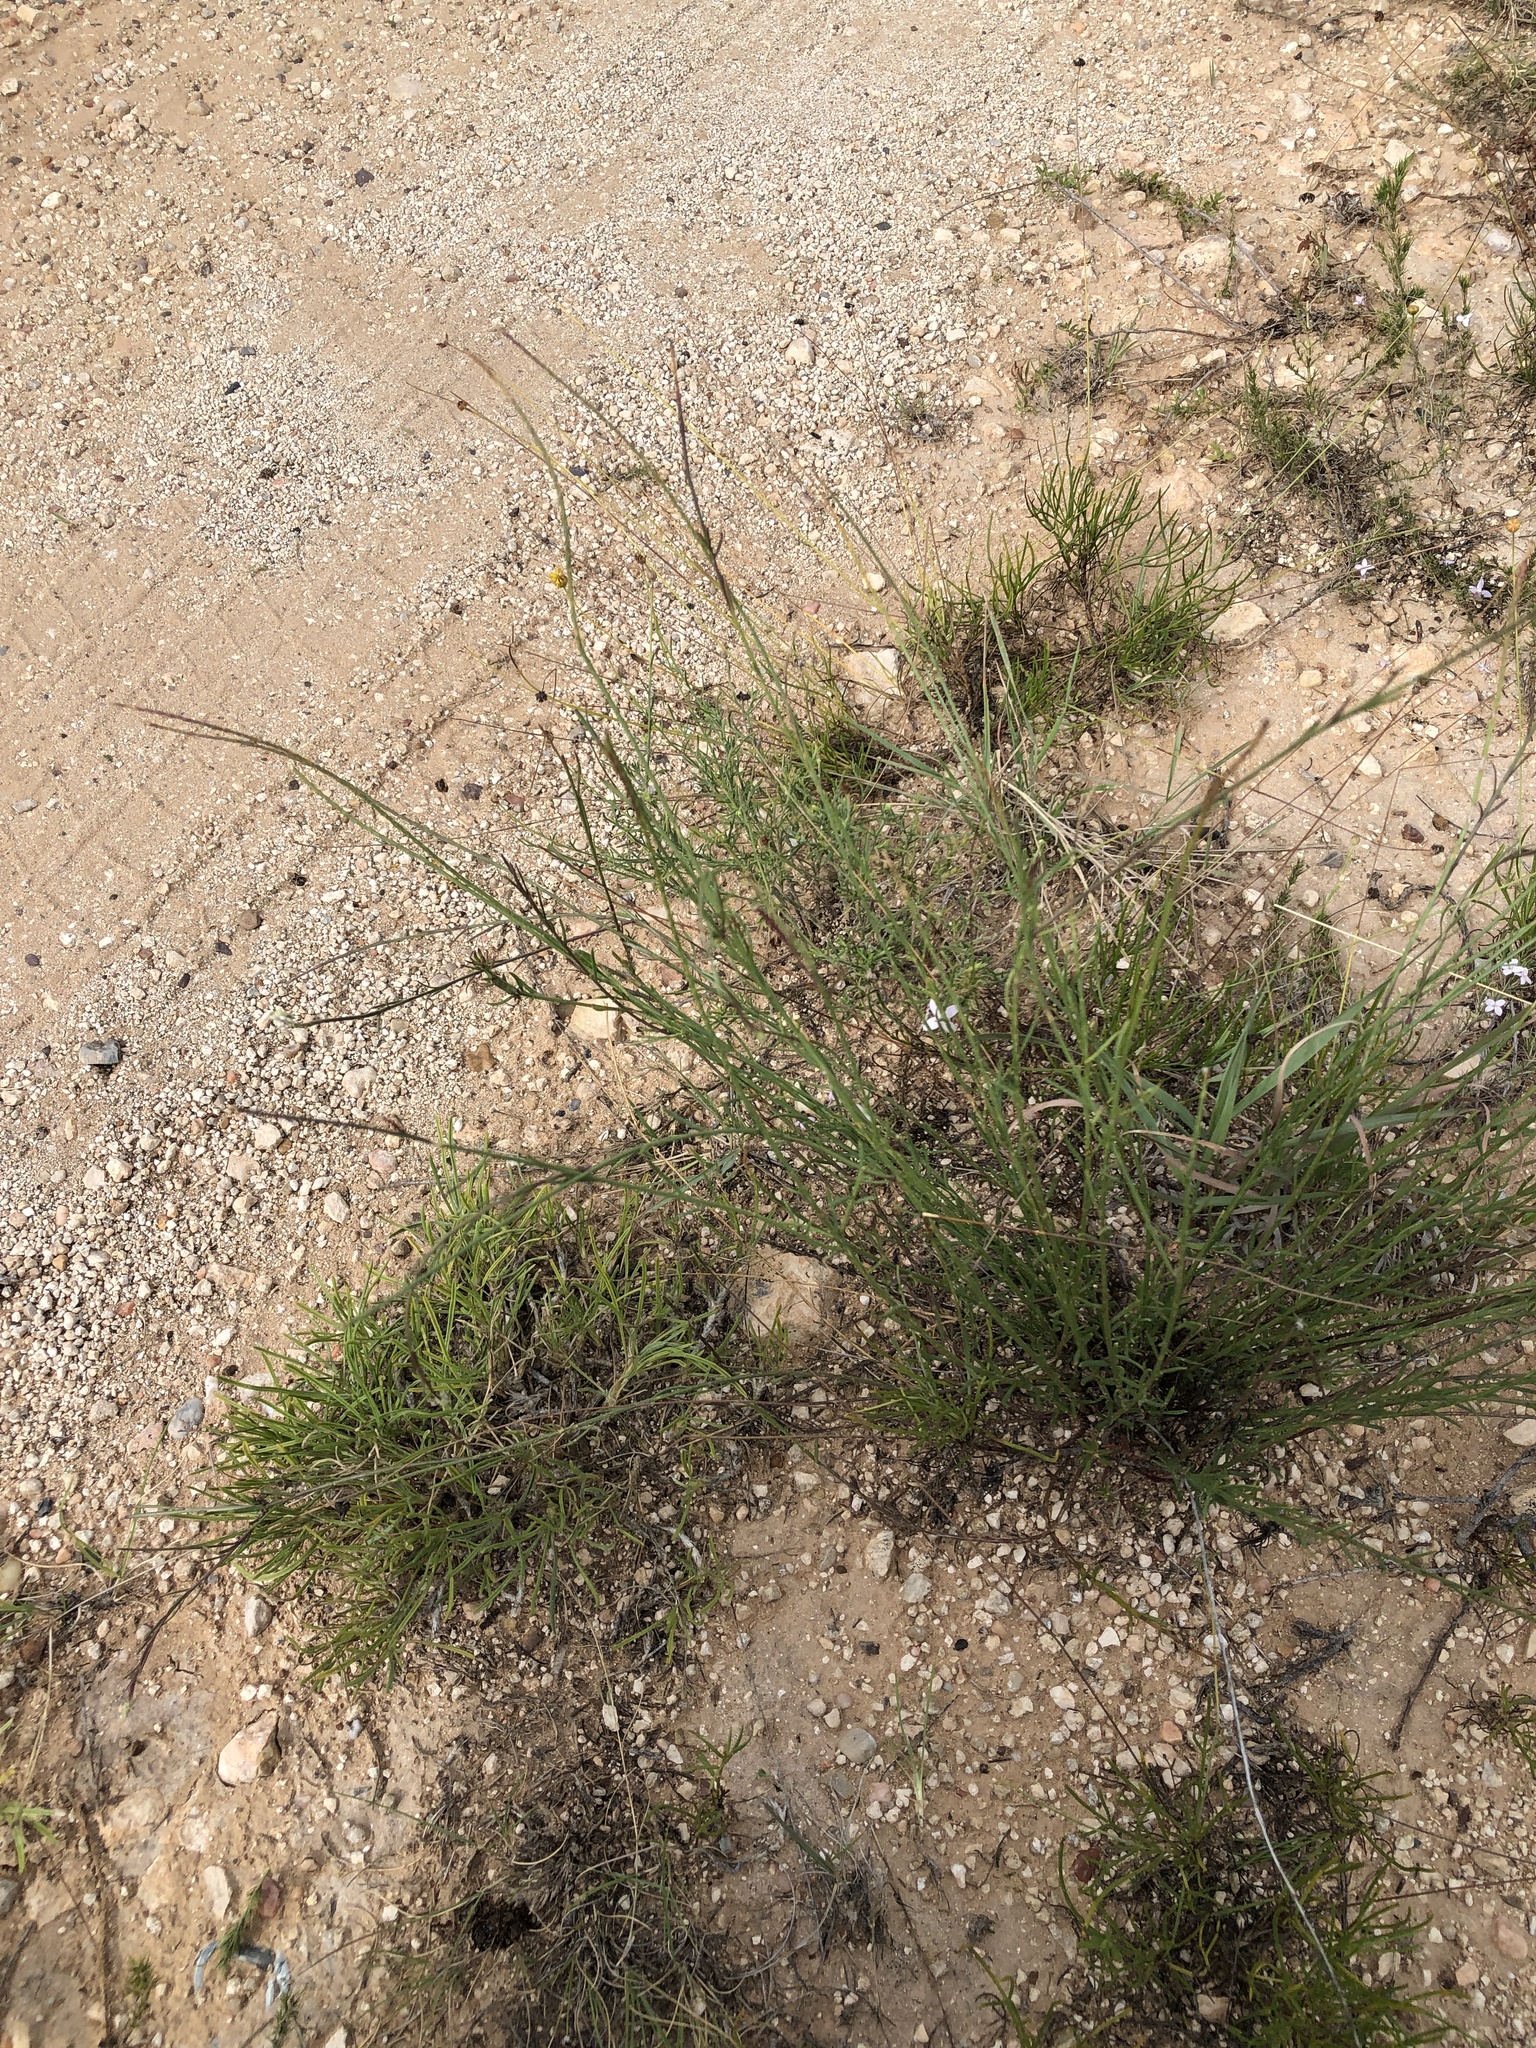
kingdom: Plantae
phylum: Tracheophyta
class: Magnoliopsida
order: Fabales
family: Polygalaceae
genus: Polygala
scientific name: Polygala alba
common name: White milkwort
